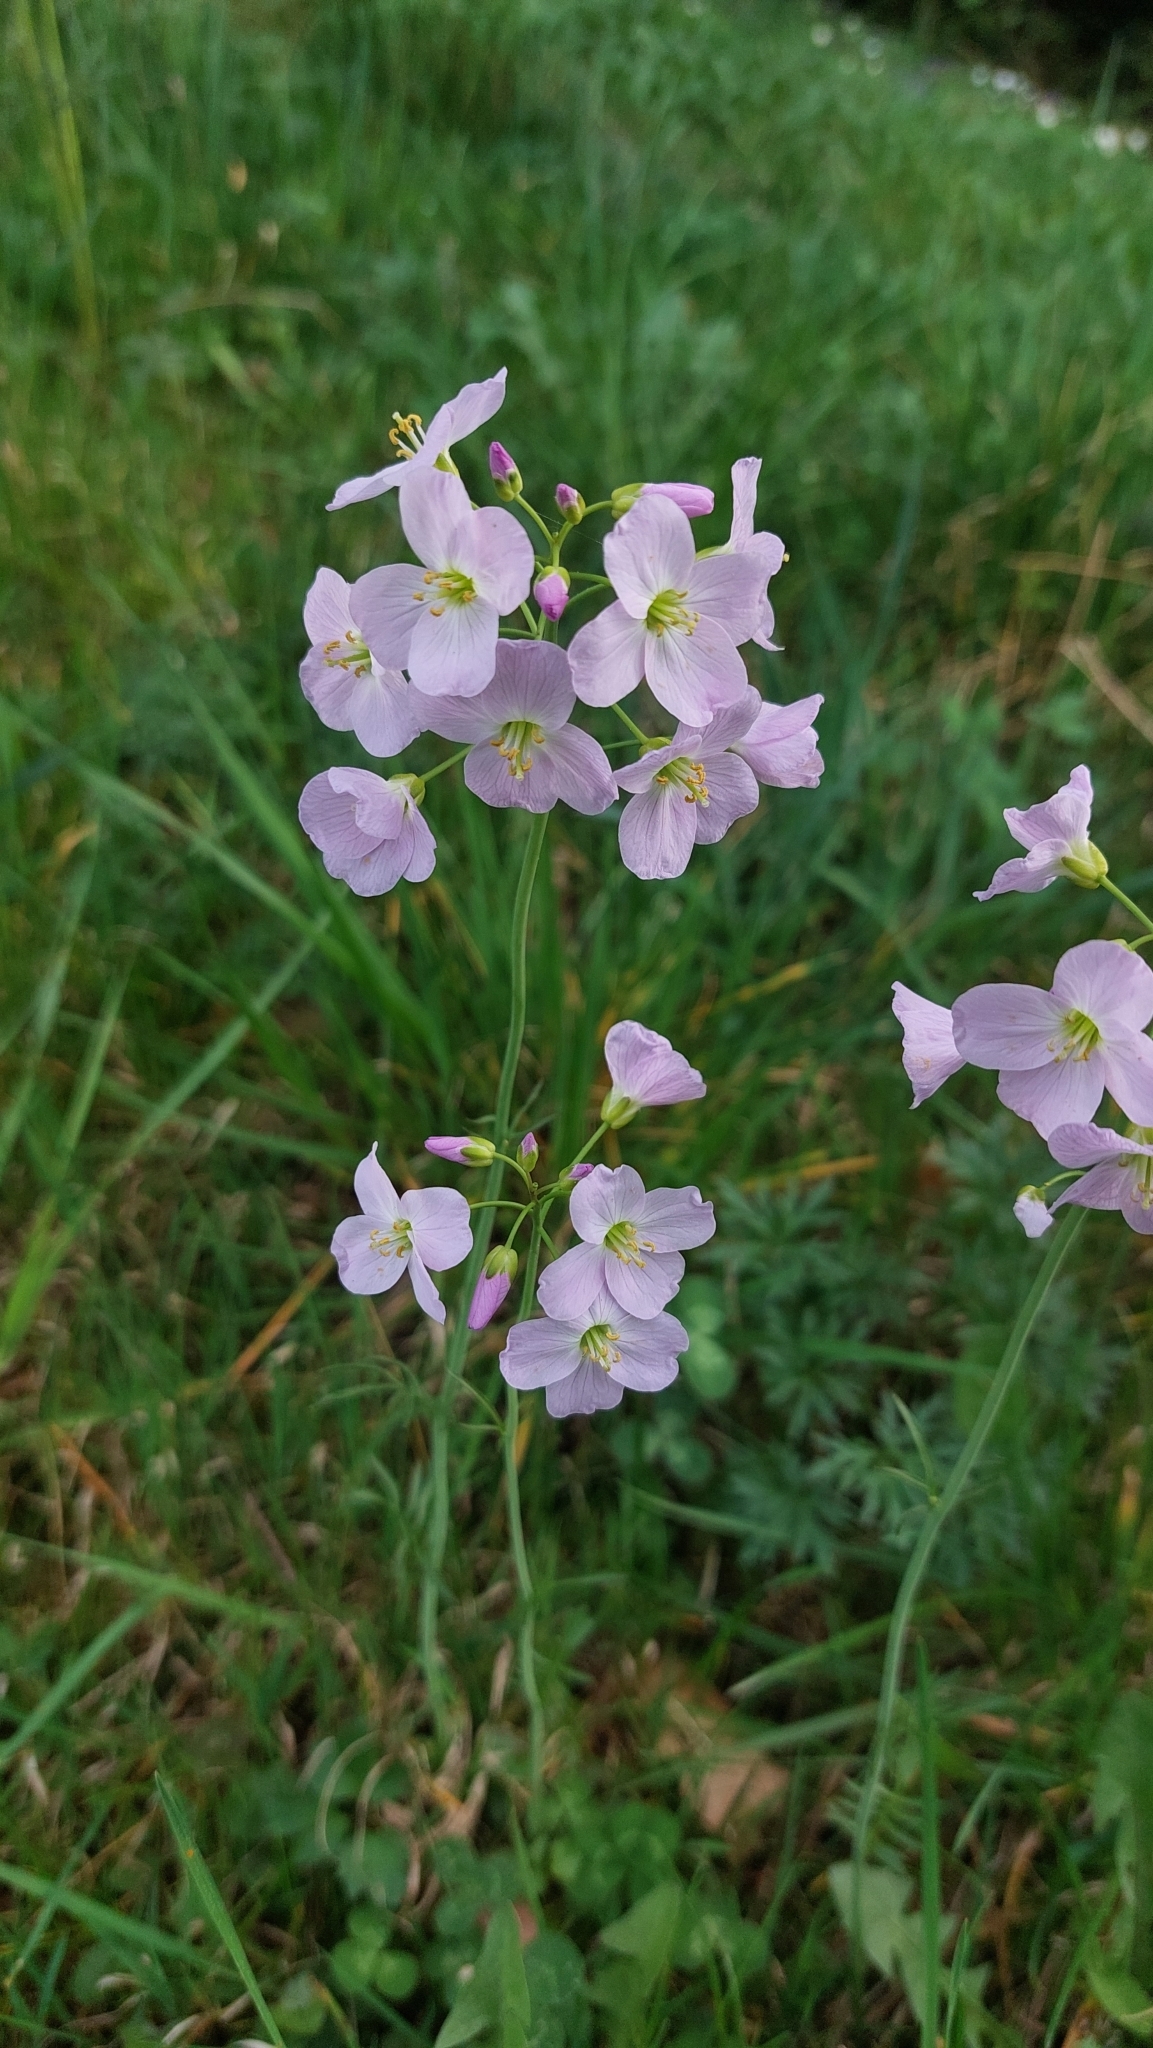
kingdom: Plantae
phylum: Tracheophyta
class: Magnoliopsida
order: Brassicales
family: Brassicaceae
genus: Cardamine
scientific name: Cardamine pratensis
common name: Cuckoo flower
